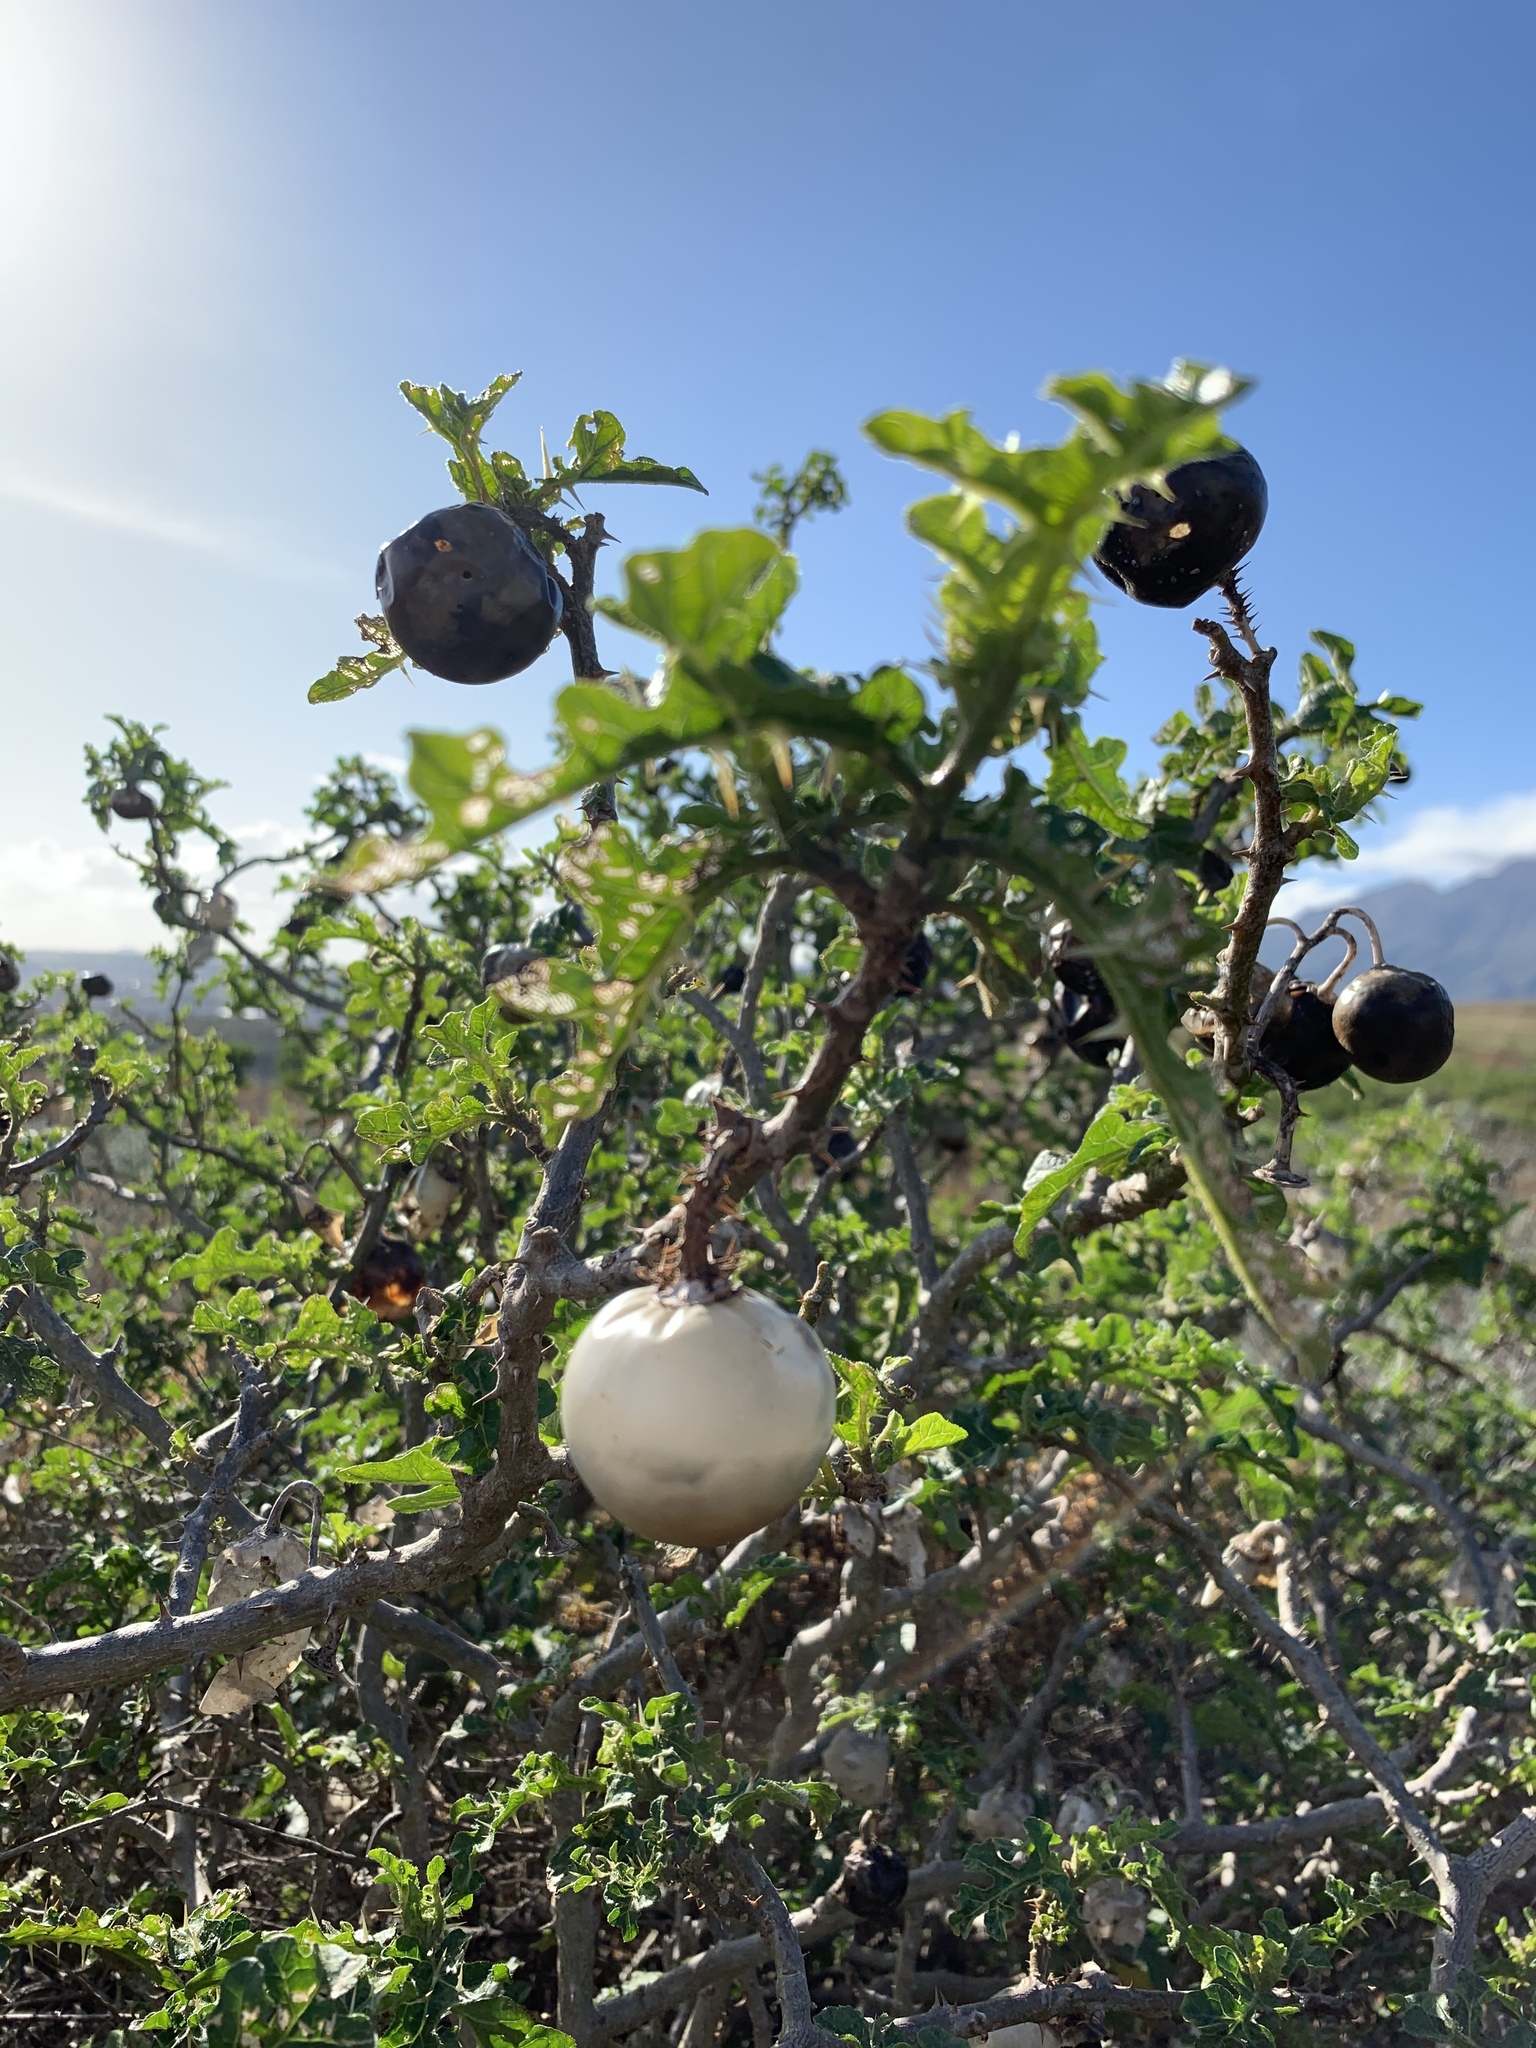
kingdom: Plantae
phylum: Tracheophyta
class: Magnoliopsida
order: Solanales
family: Solanaceae
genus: Solanum
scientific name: Solanum linnaeanum
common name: Nightshade
